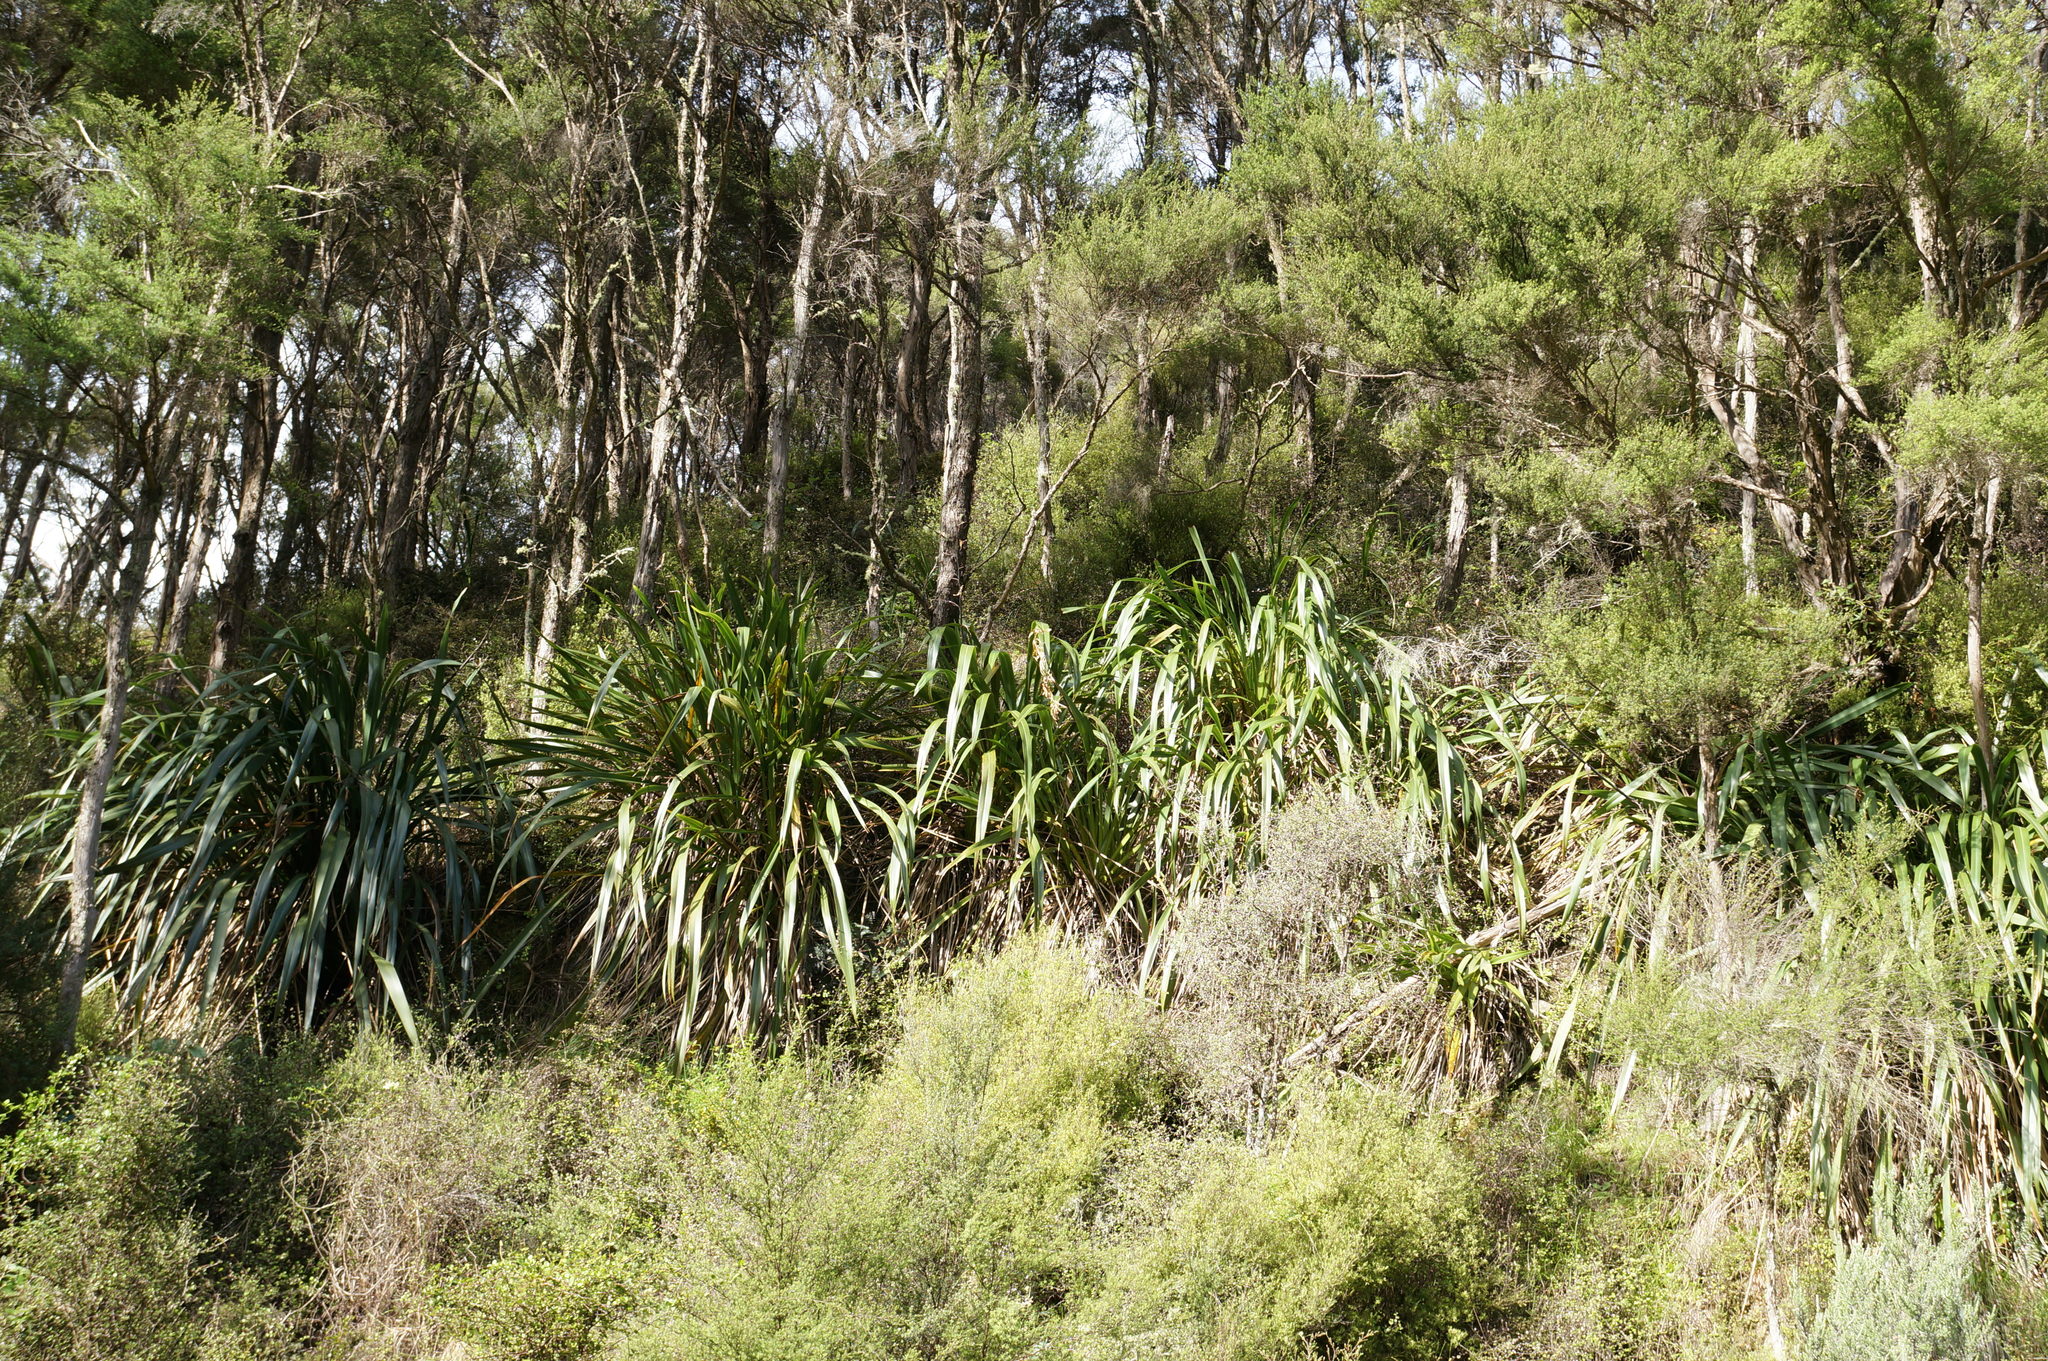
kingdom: Plantae
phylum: Tracheophyta
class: Liliopsida
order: Asparagales
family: Asphodelaceae
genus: Phormium
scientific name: Phormium colensoi
